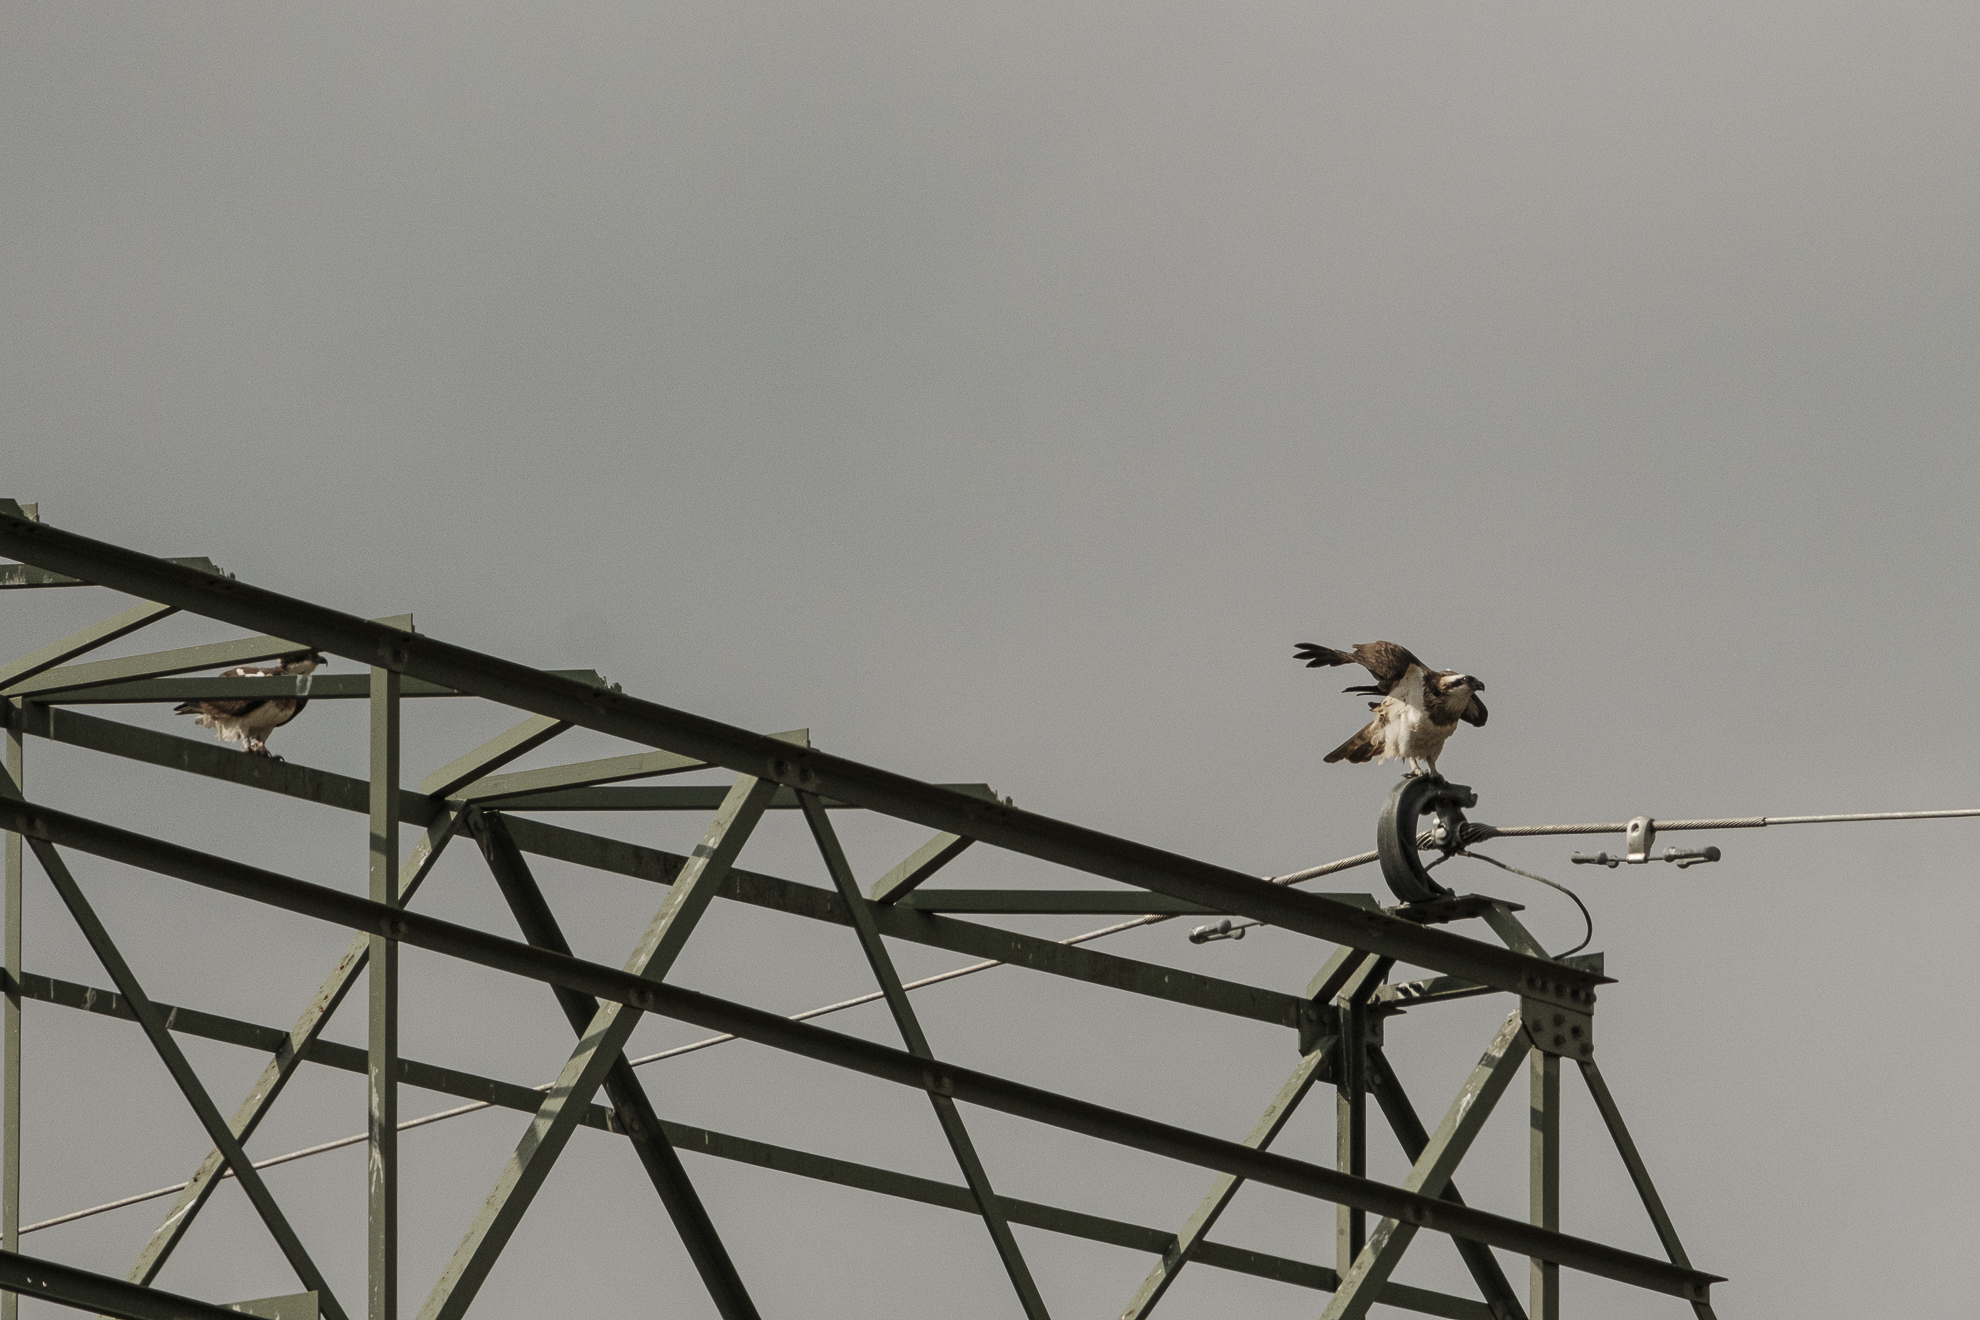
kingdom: Animalia
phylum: Chordata
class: Aves
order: Accipitriformes
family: Pandionidae
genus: Pandion
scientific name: Pandion haliaetus
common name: Osprey
